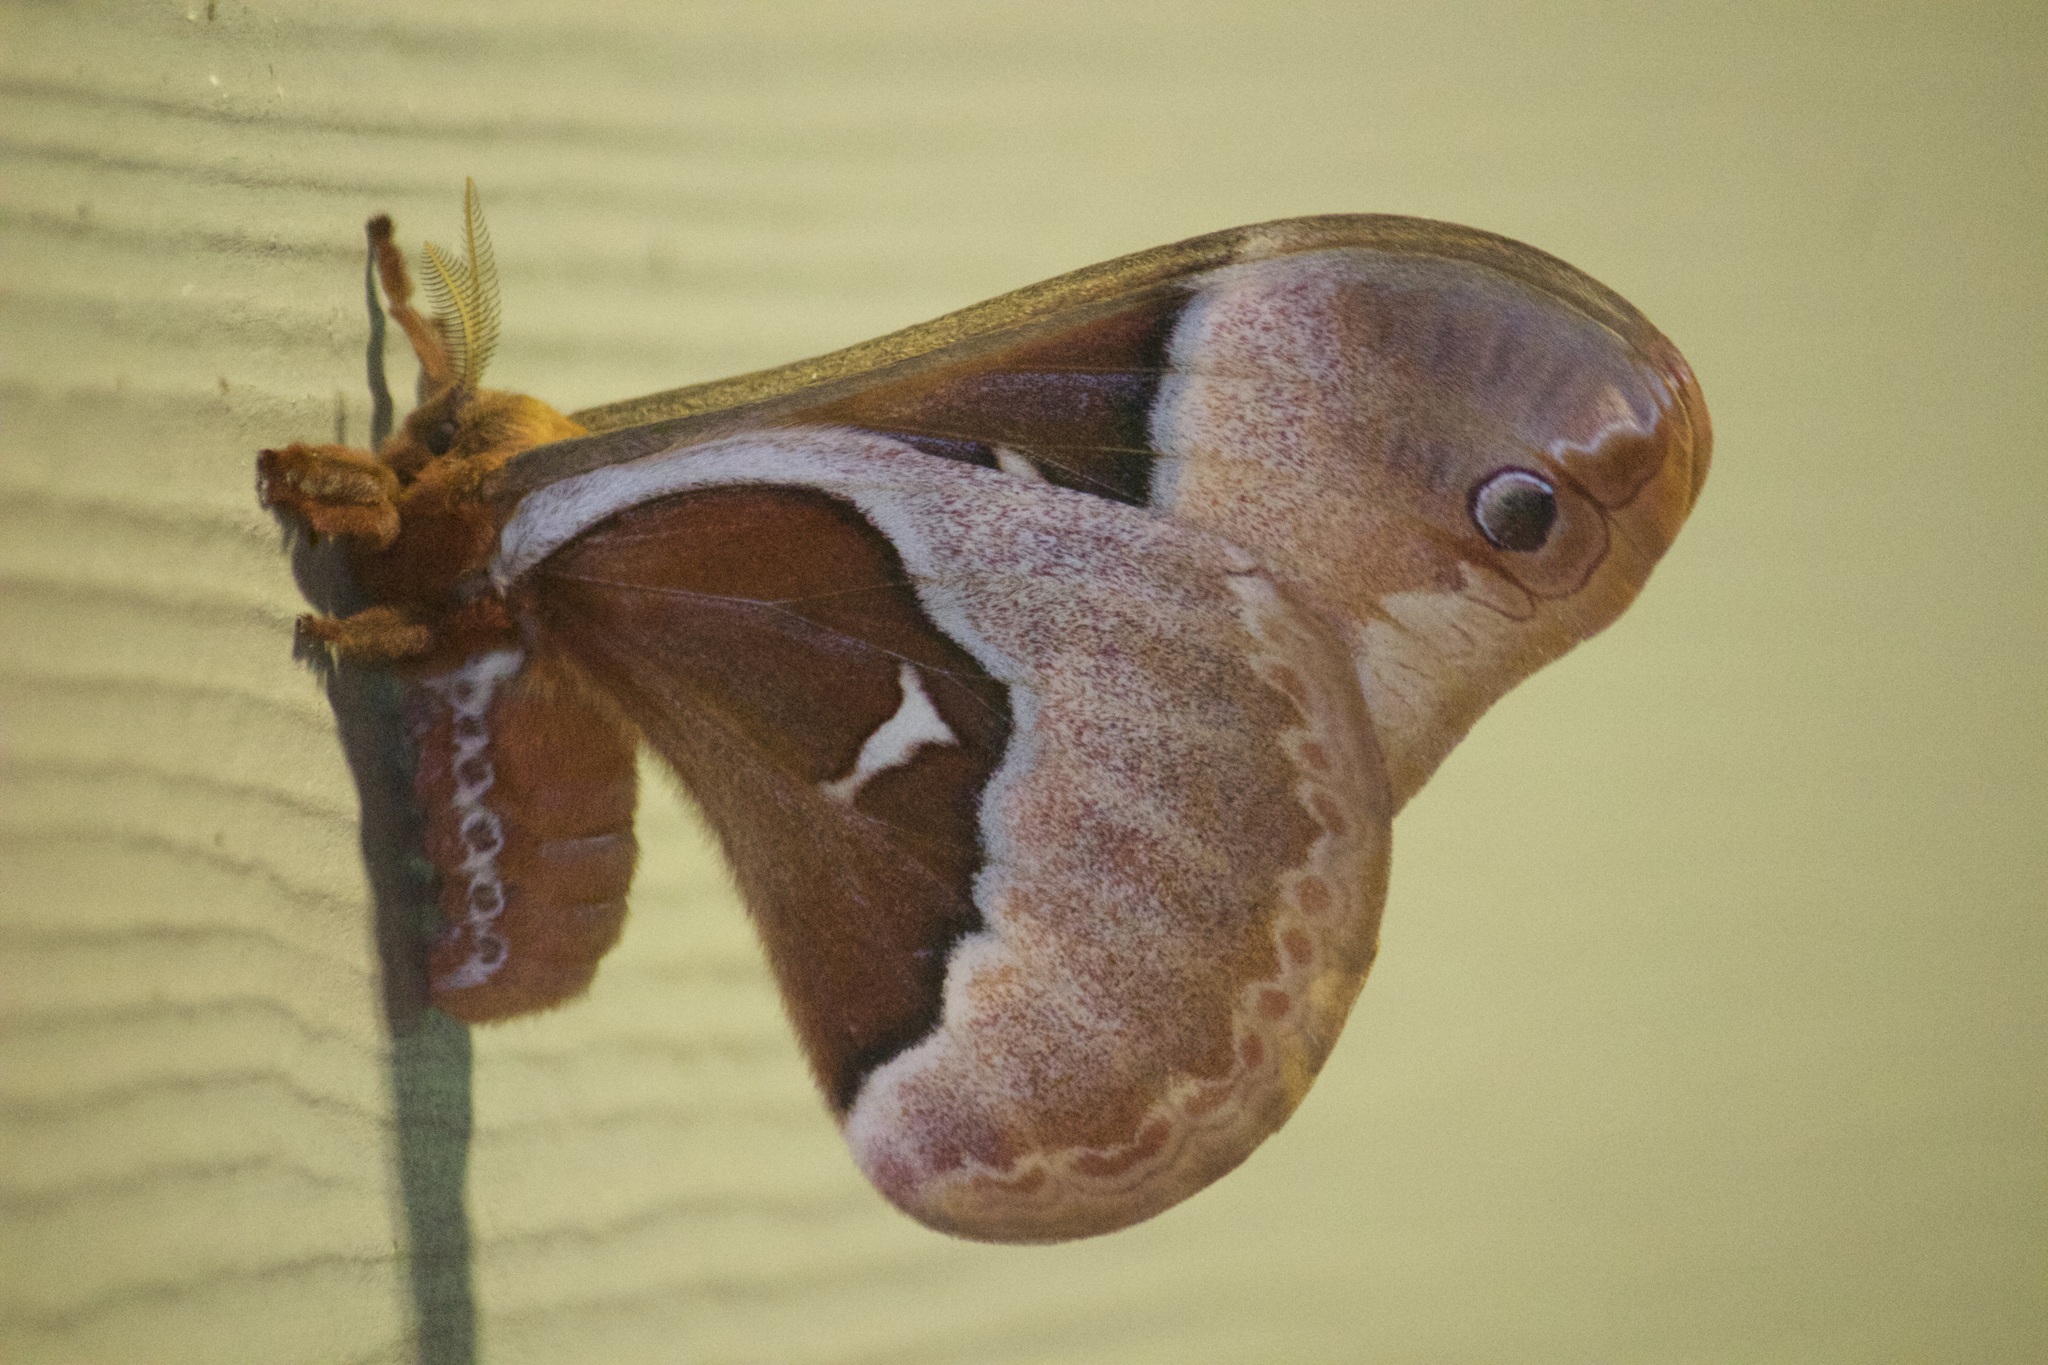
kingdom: Animalia
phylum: Arthropoda
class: Insecta
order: Lepidoptera
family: Saturniidae
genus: Callosamia
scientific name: Callosamia angulifera
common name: Tulip tree silkmoth
